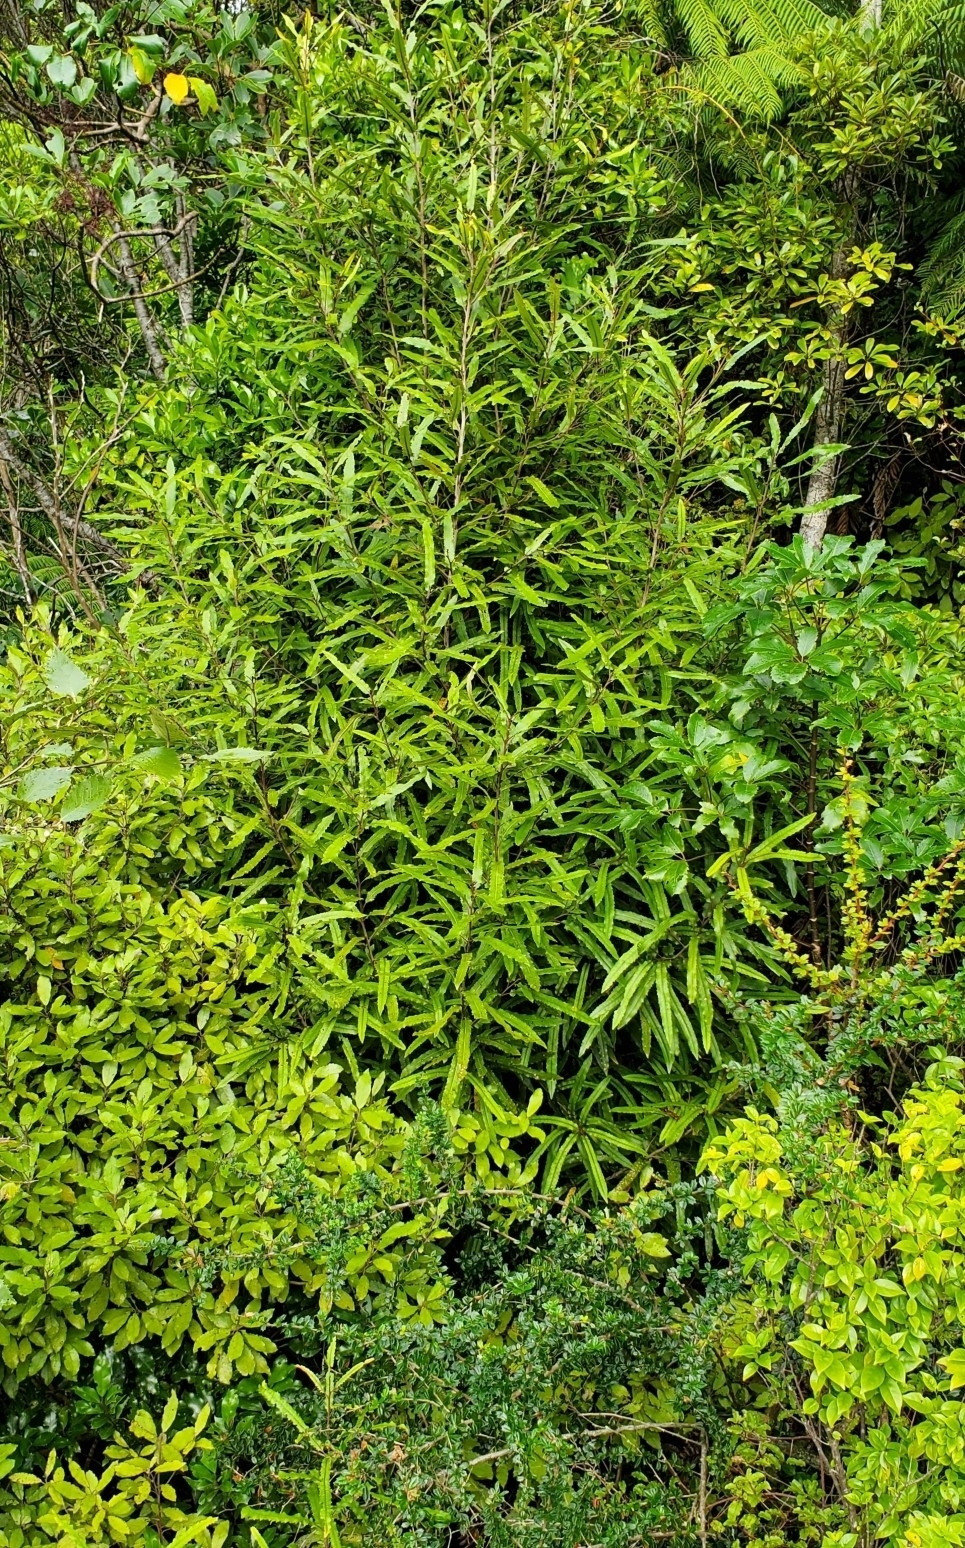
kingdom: Plantae
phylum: Tracheophyta
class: Magnoliopsida
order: Proteales
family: Proteaceae
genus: Knightia
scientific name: Knightia excelsa
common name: New zealand-honeysuckle
